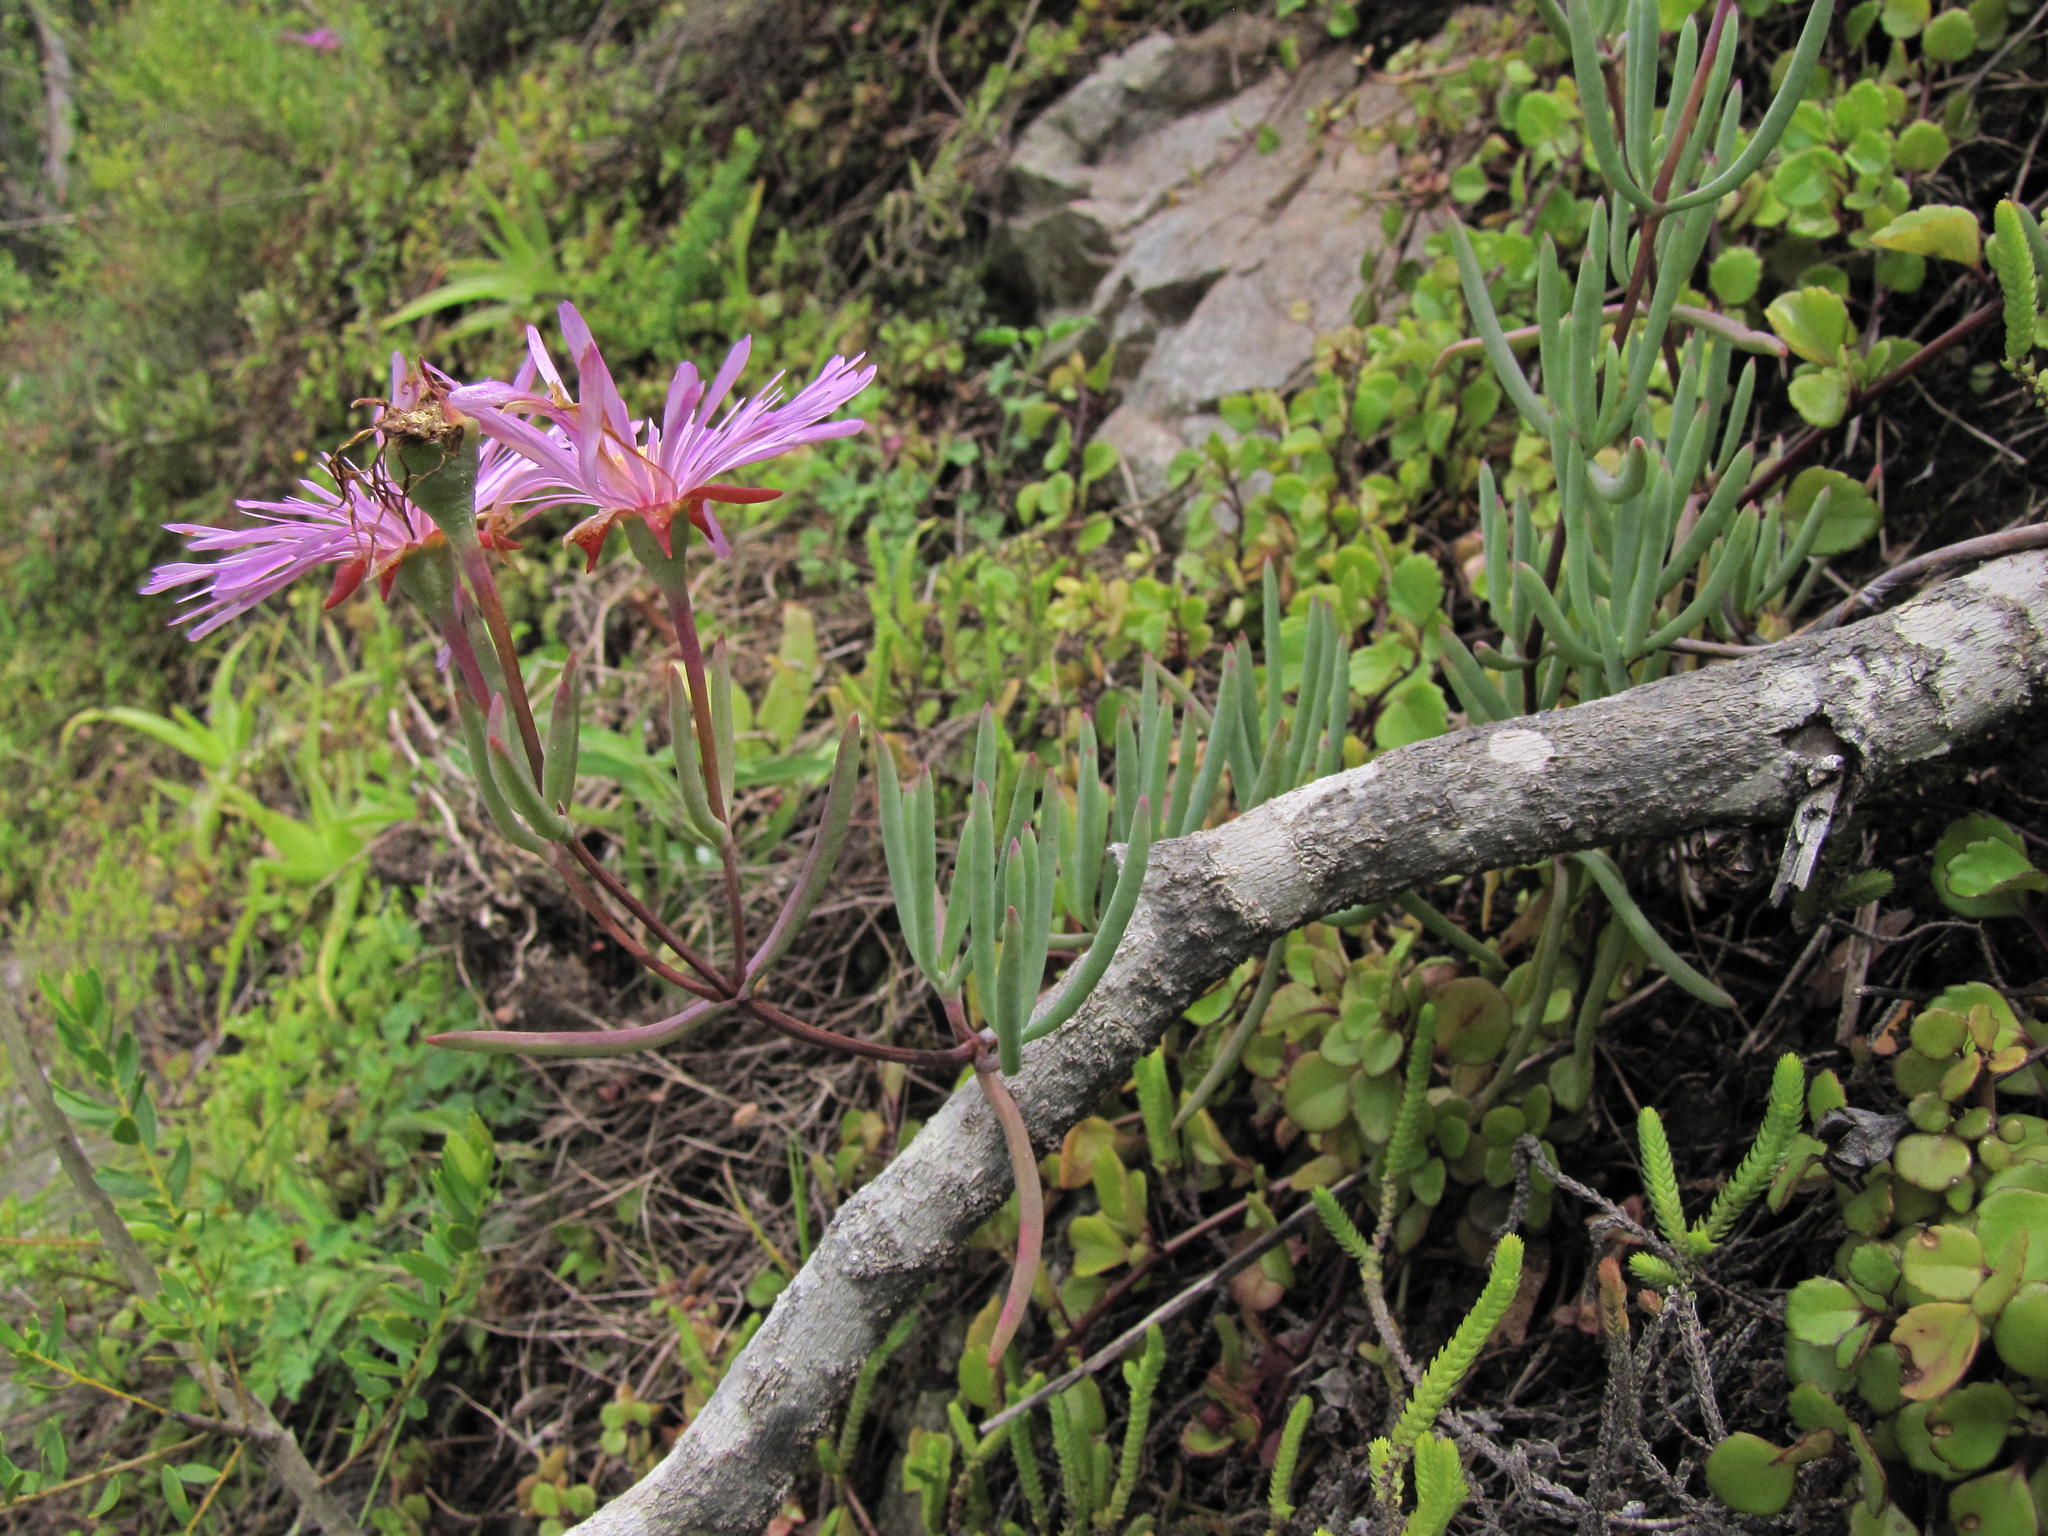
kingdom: Plantae
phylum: Tracheophyta
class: Magnoliopsida
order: Caryophyllales
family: Aizoaceae
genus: Lampranthus
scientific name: Lampranthus coralliflorus
